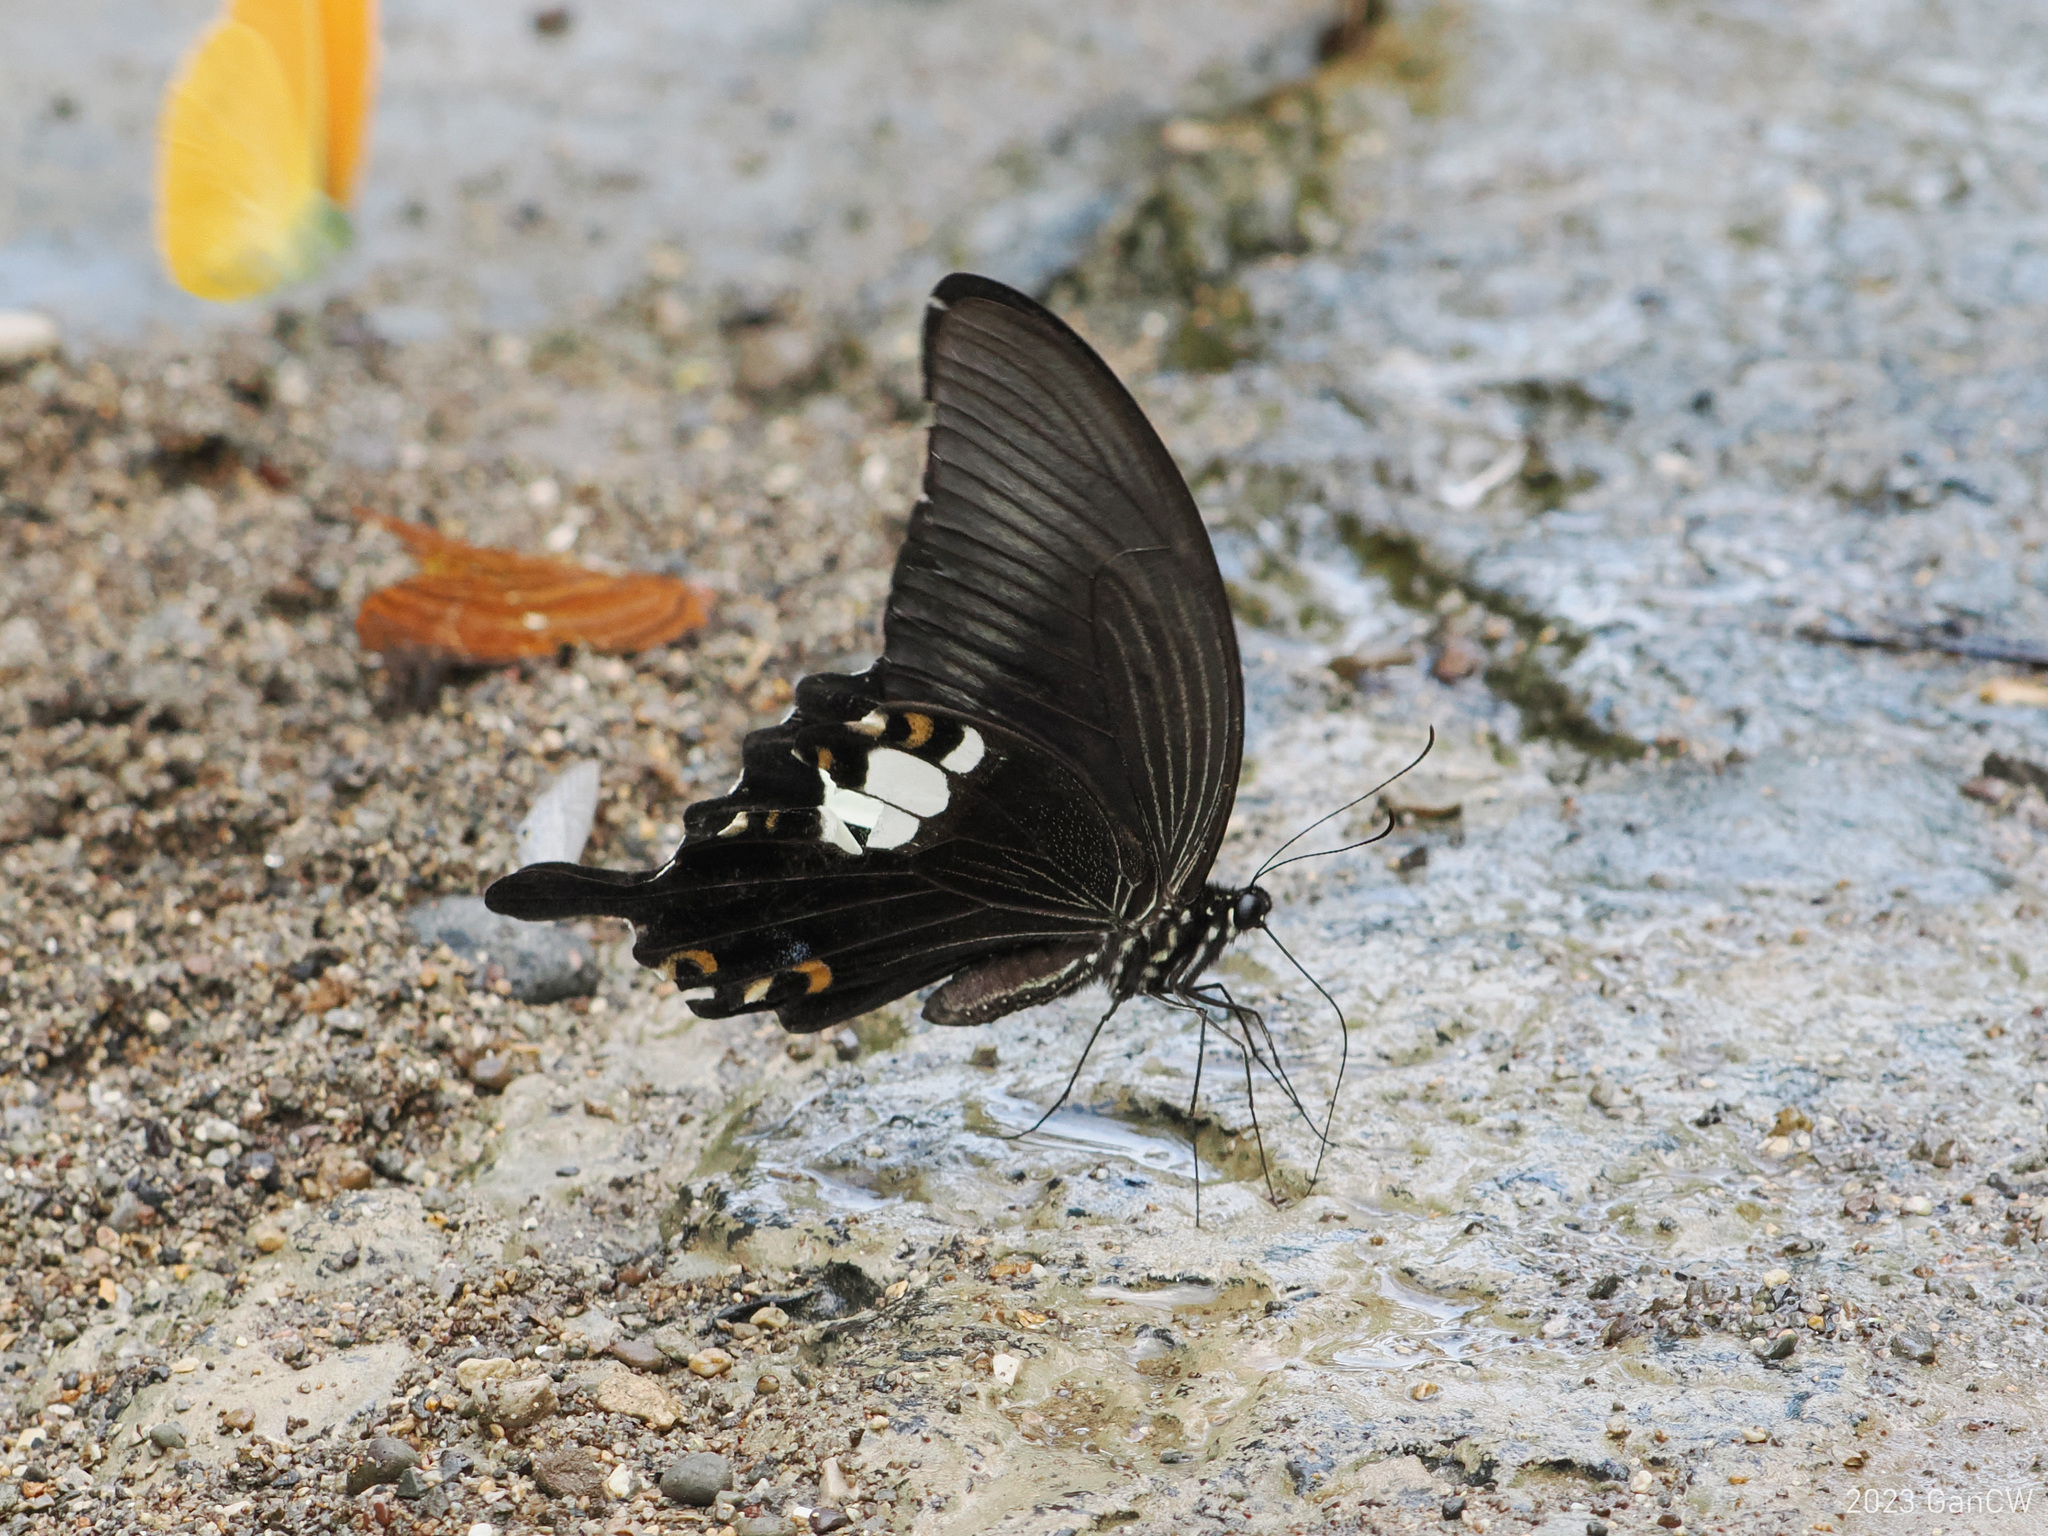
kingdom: Animalia
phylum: Arthropoda
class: Insecta
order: Lepidoptera
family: Papilionidae
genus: Papilio
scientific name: Papilio sataspes
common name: Sulawesi red helen
